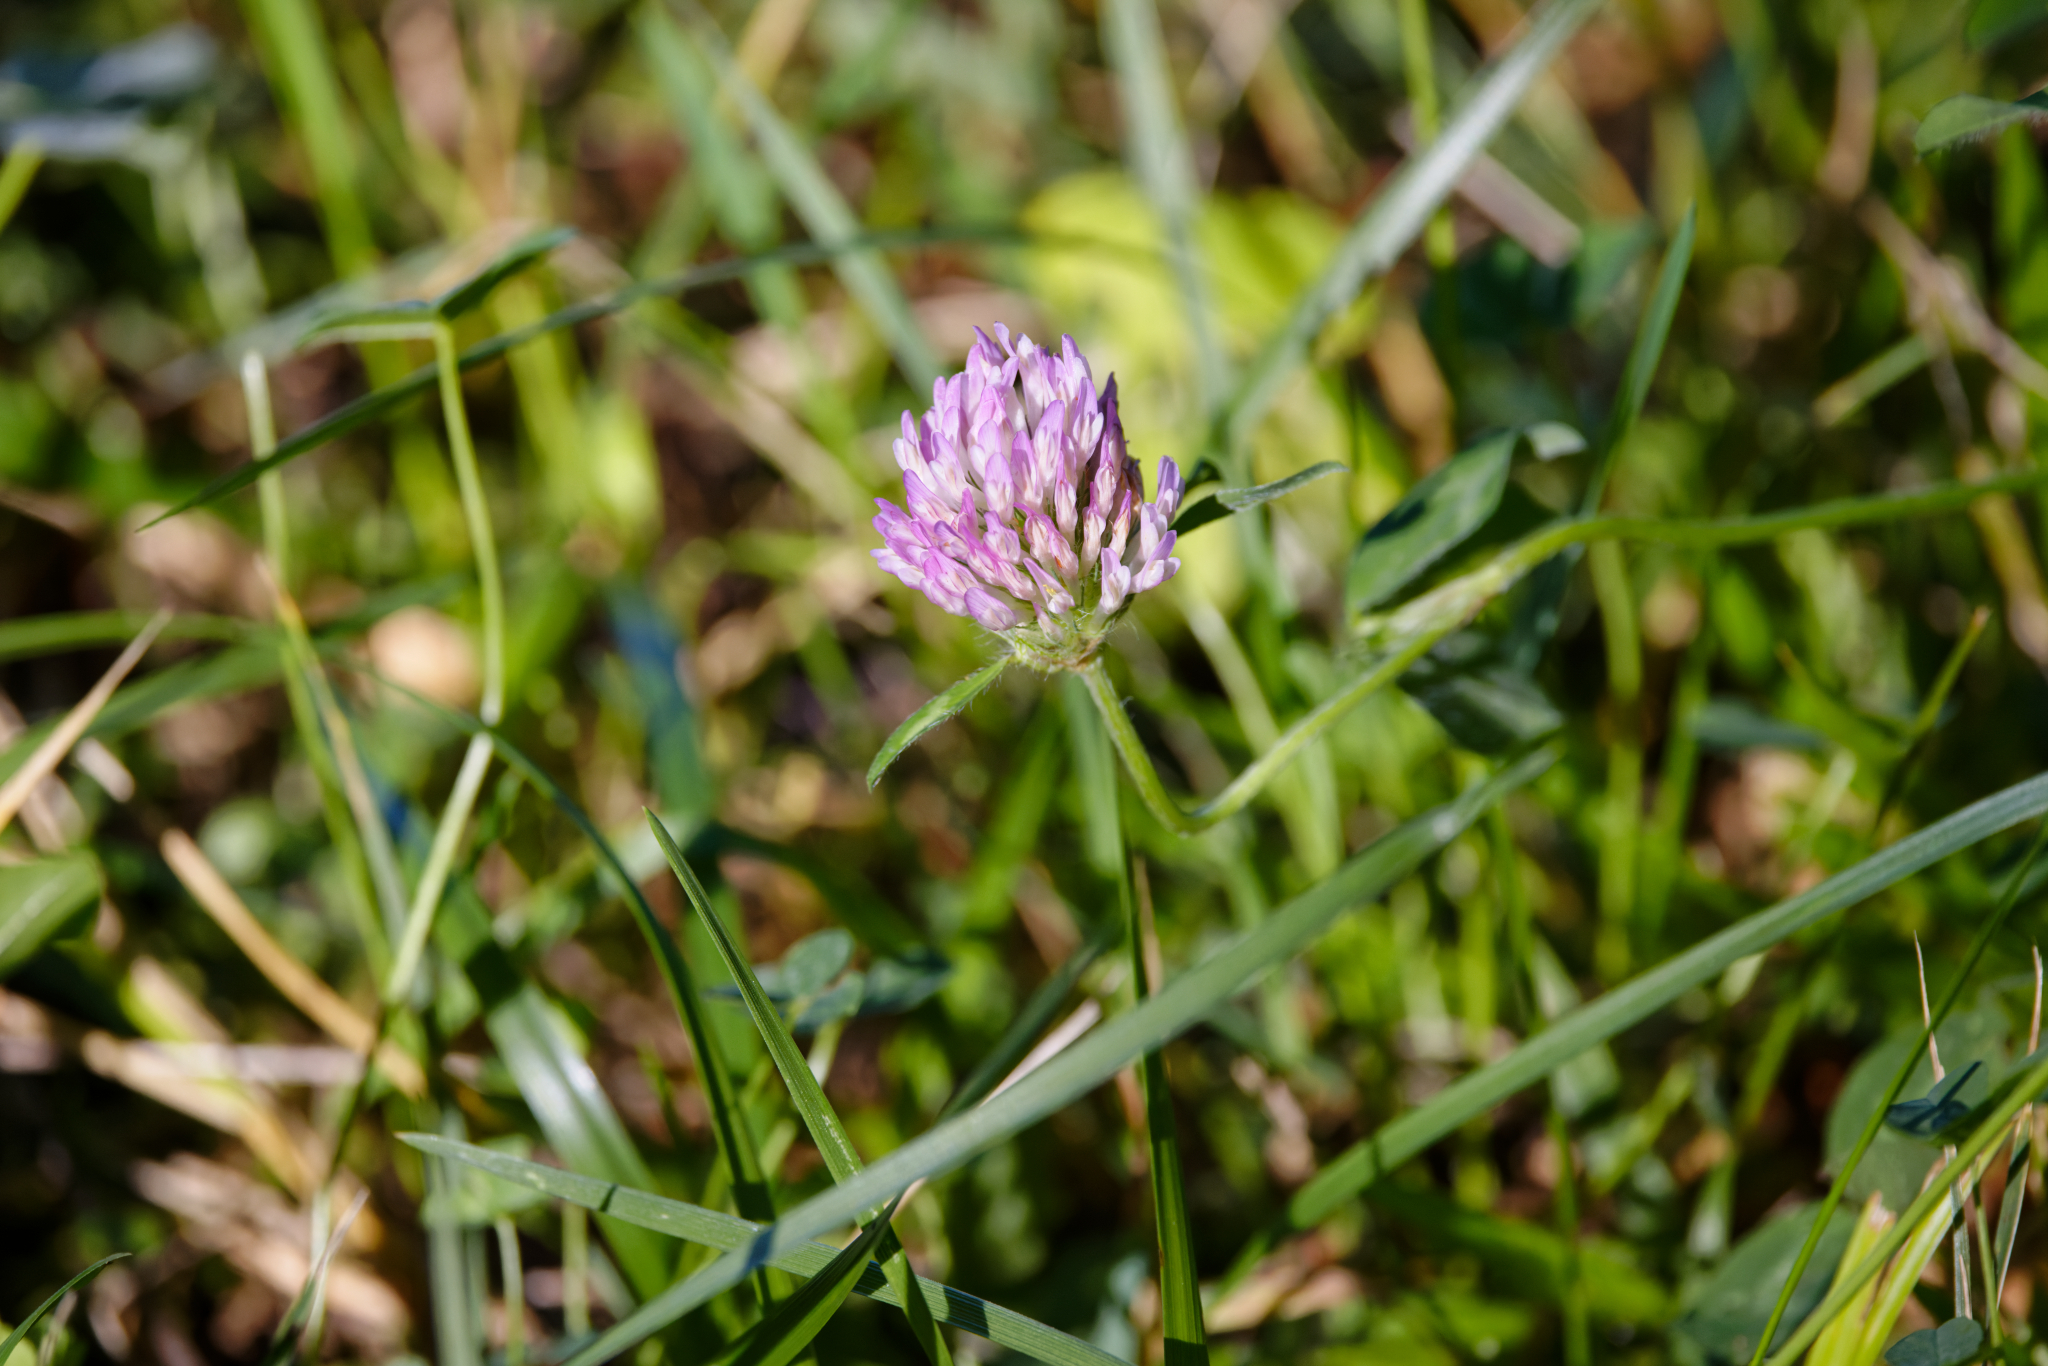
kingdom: Plantae
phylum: Tracheophyta
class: Magnoliopsida
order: Fabales
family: Fabaceae
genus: Trifolium
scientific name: Trifolium pratense
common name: Red clover
